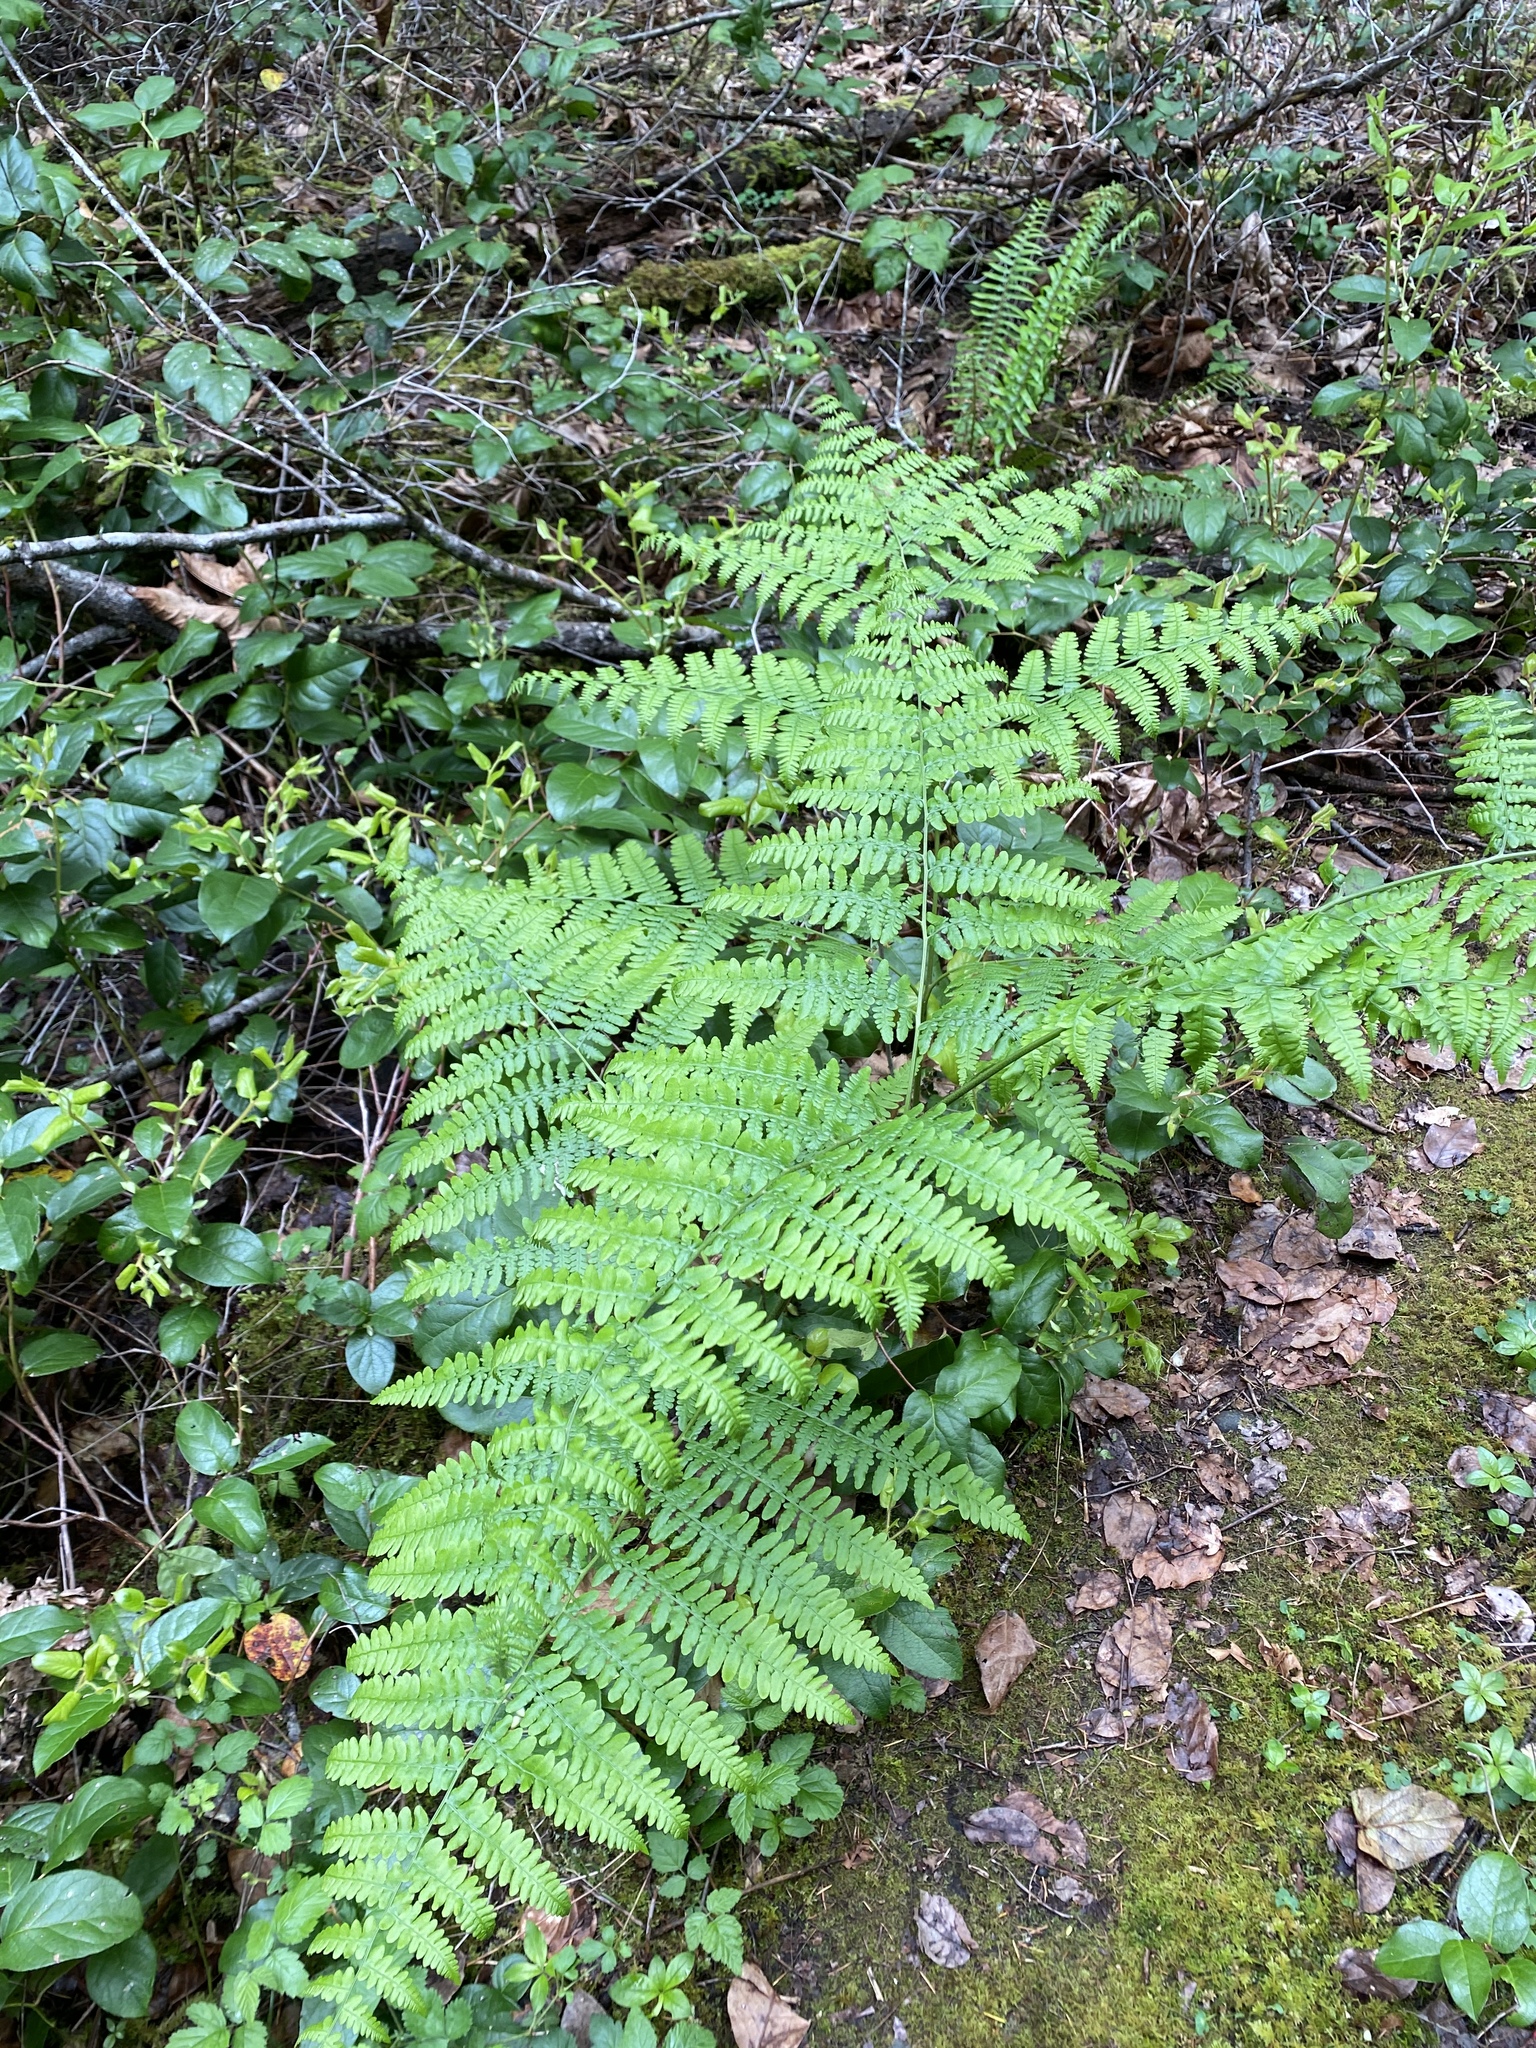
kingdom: Plantae
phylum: Tracheophyta
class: Polypodiopsida
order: Polypodiales
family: Dennstaedtiaceae
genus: Pteridium
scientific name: Pteridium aquilinum
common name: Bracken
